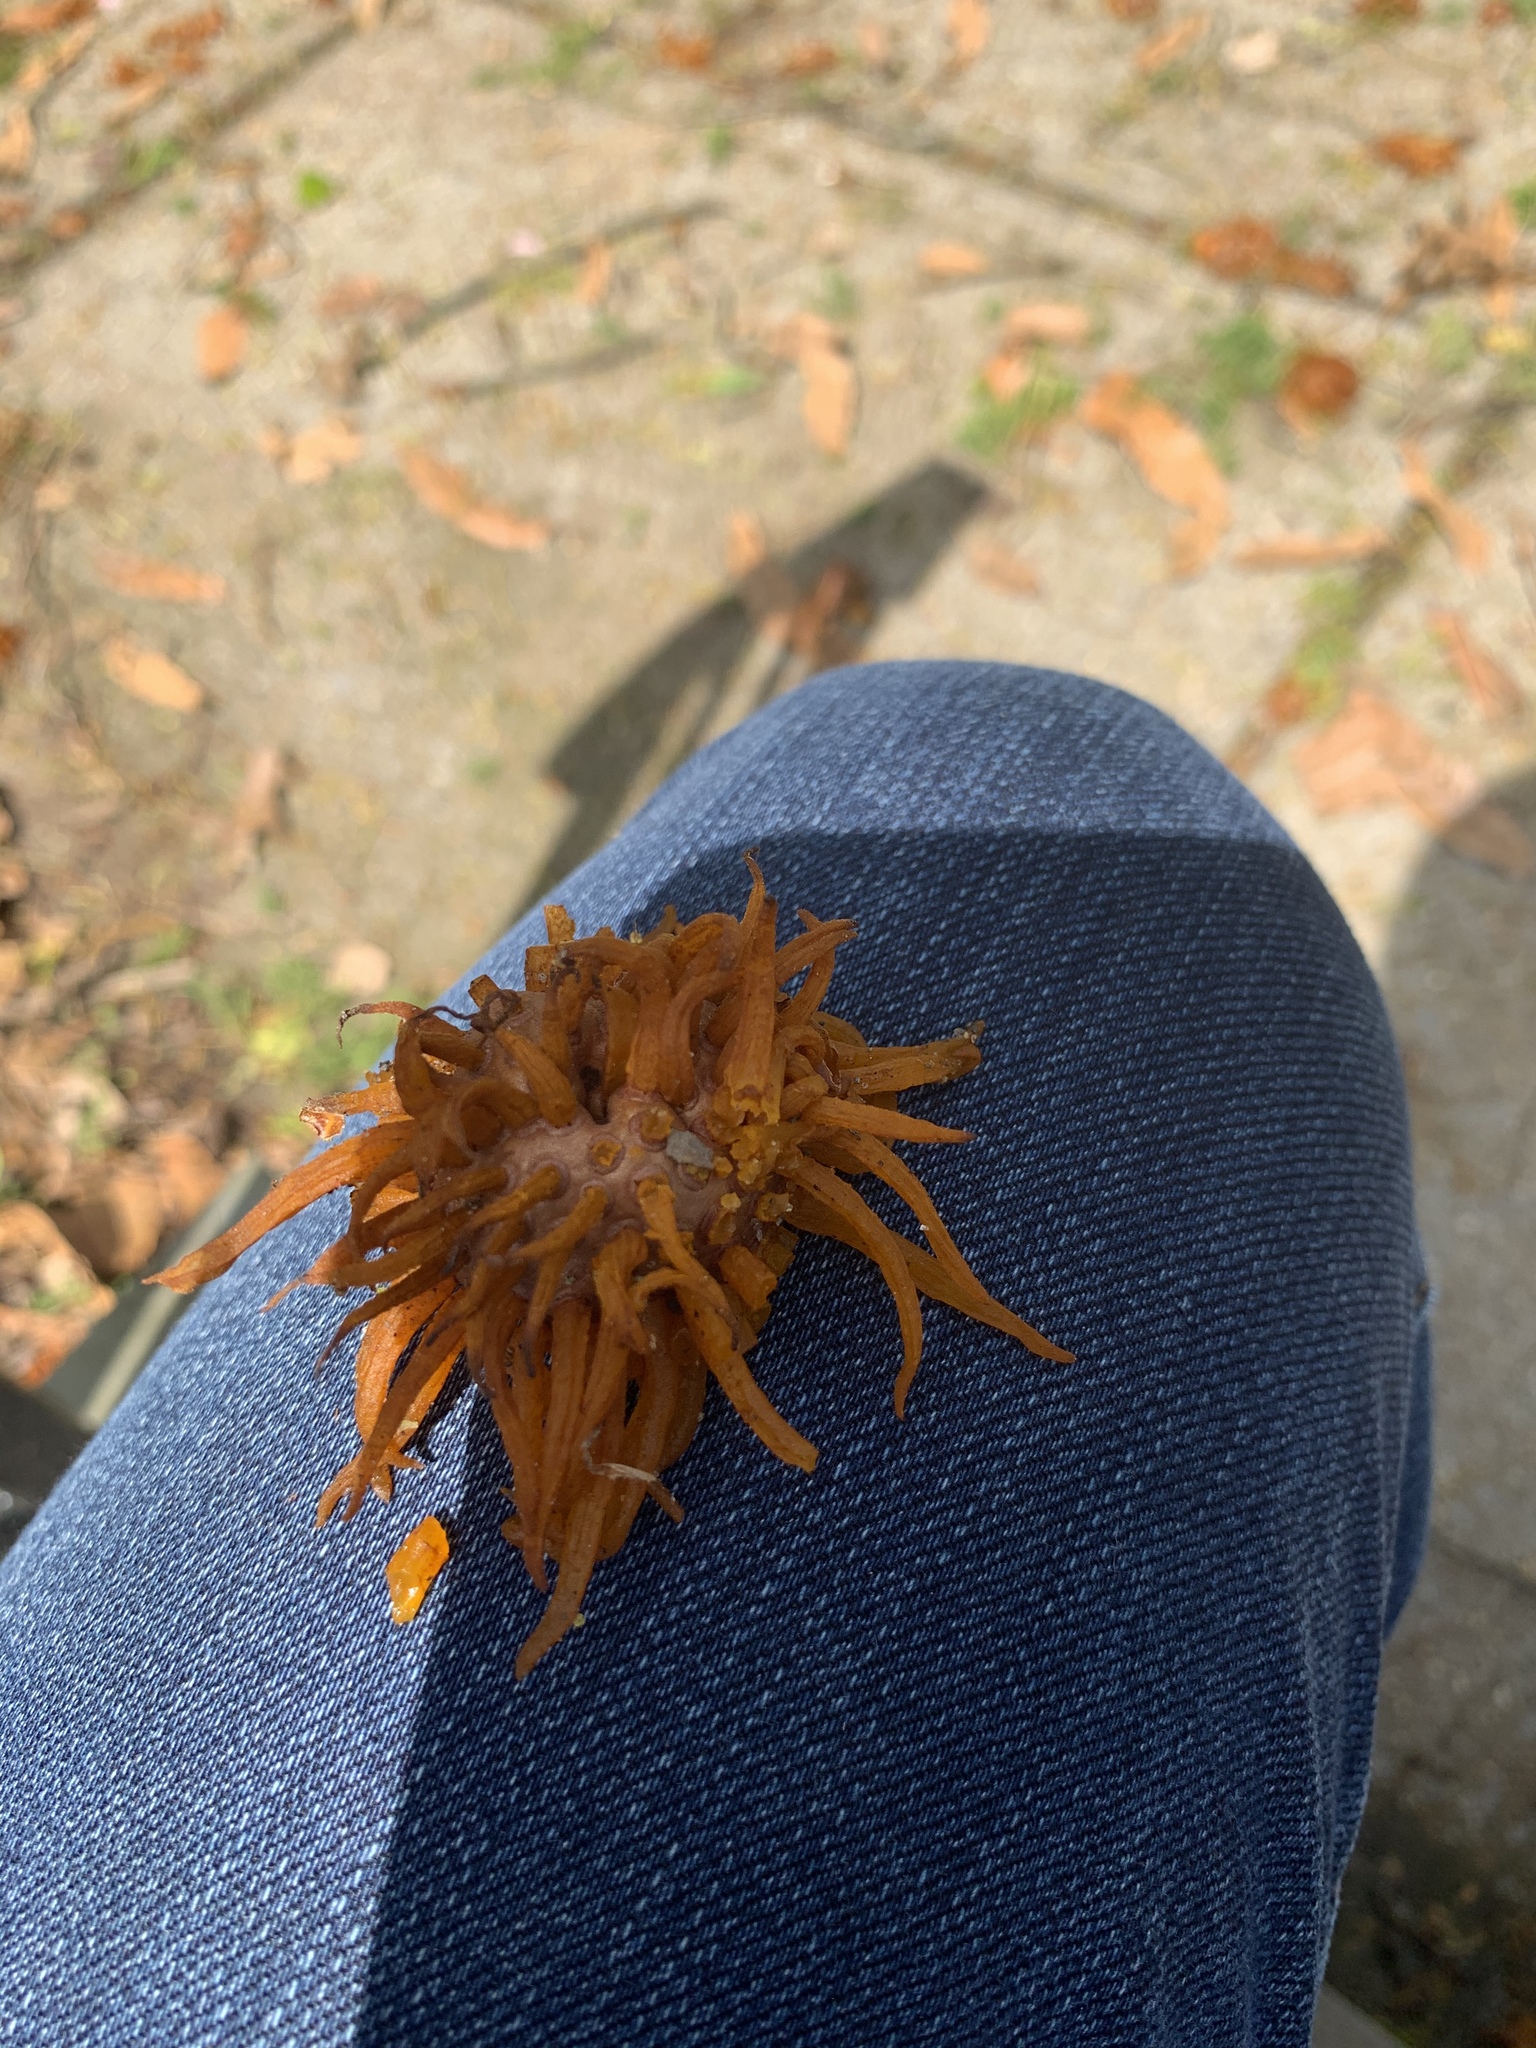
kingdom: Fungi
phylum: Basidiomycota
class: Pucciniomycetes
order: Pucciniales
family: Gymnosporangiaceae
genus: Gymnosporangium
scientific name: Gymnosporangium juniperi-virginianae
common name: Juniper-apple rust
